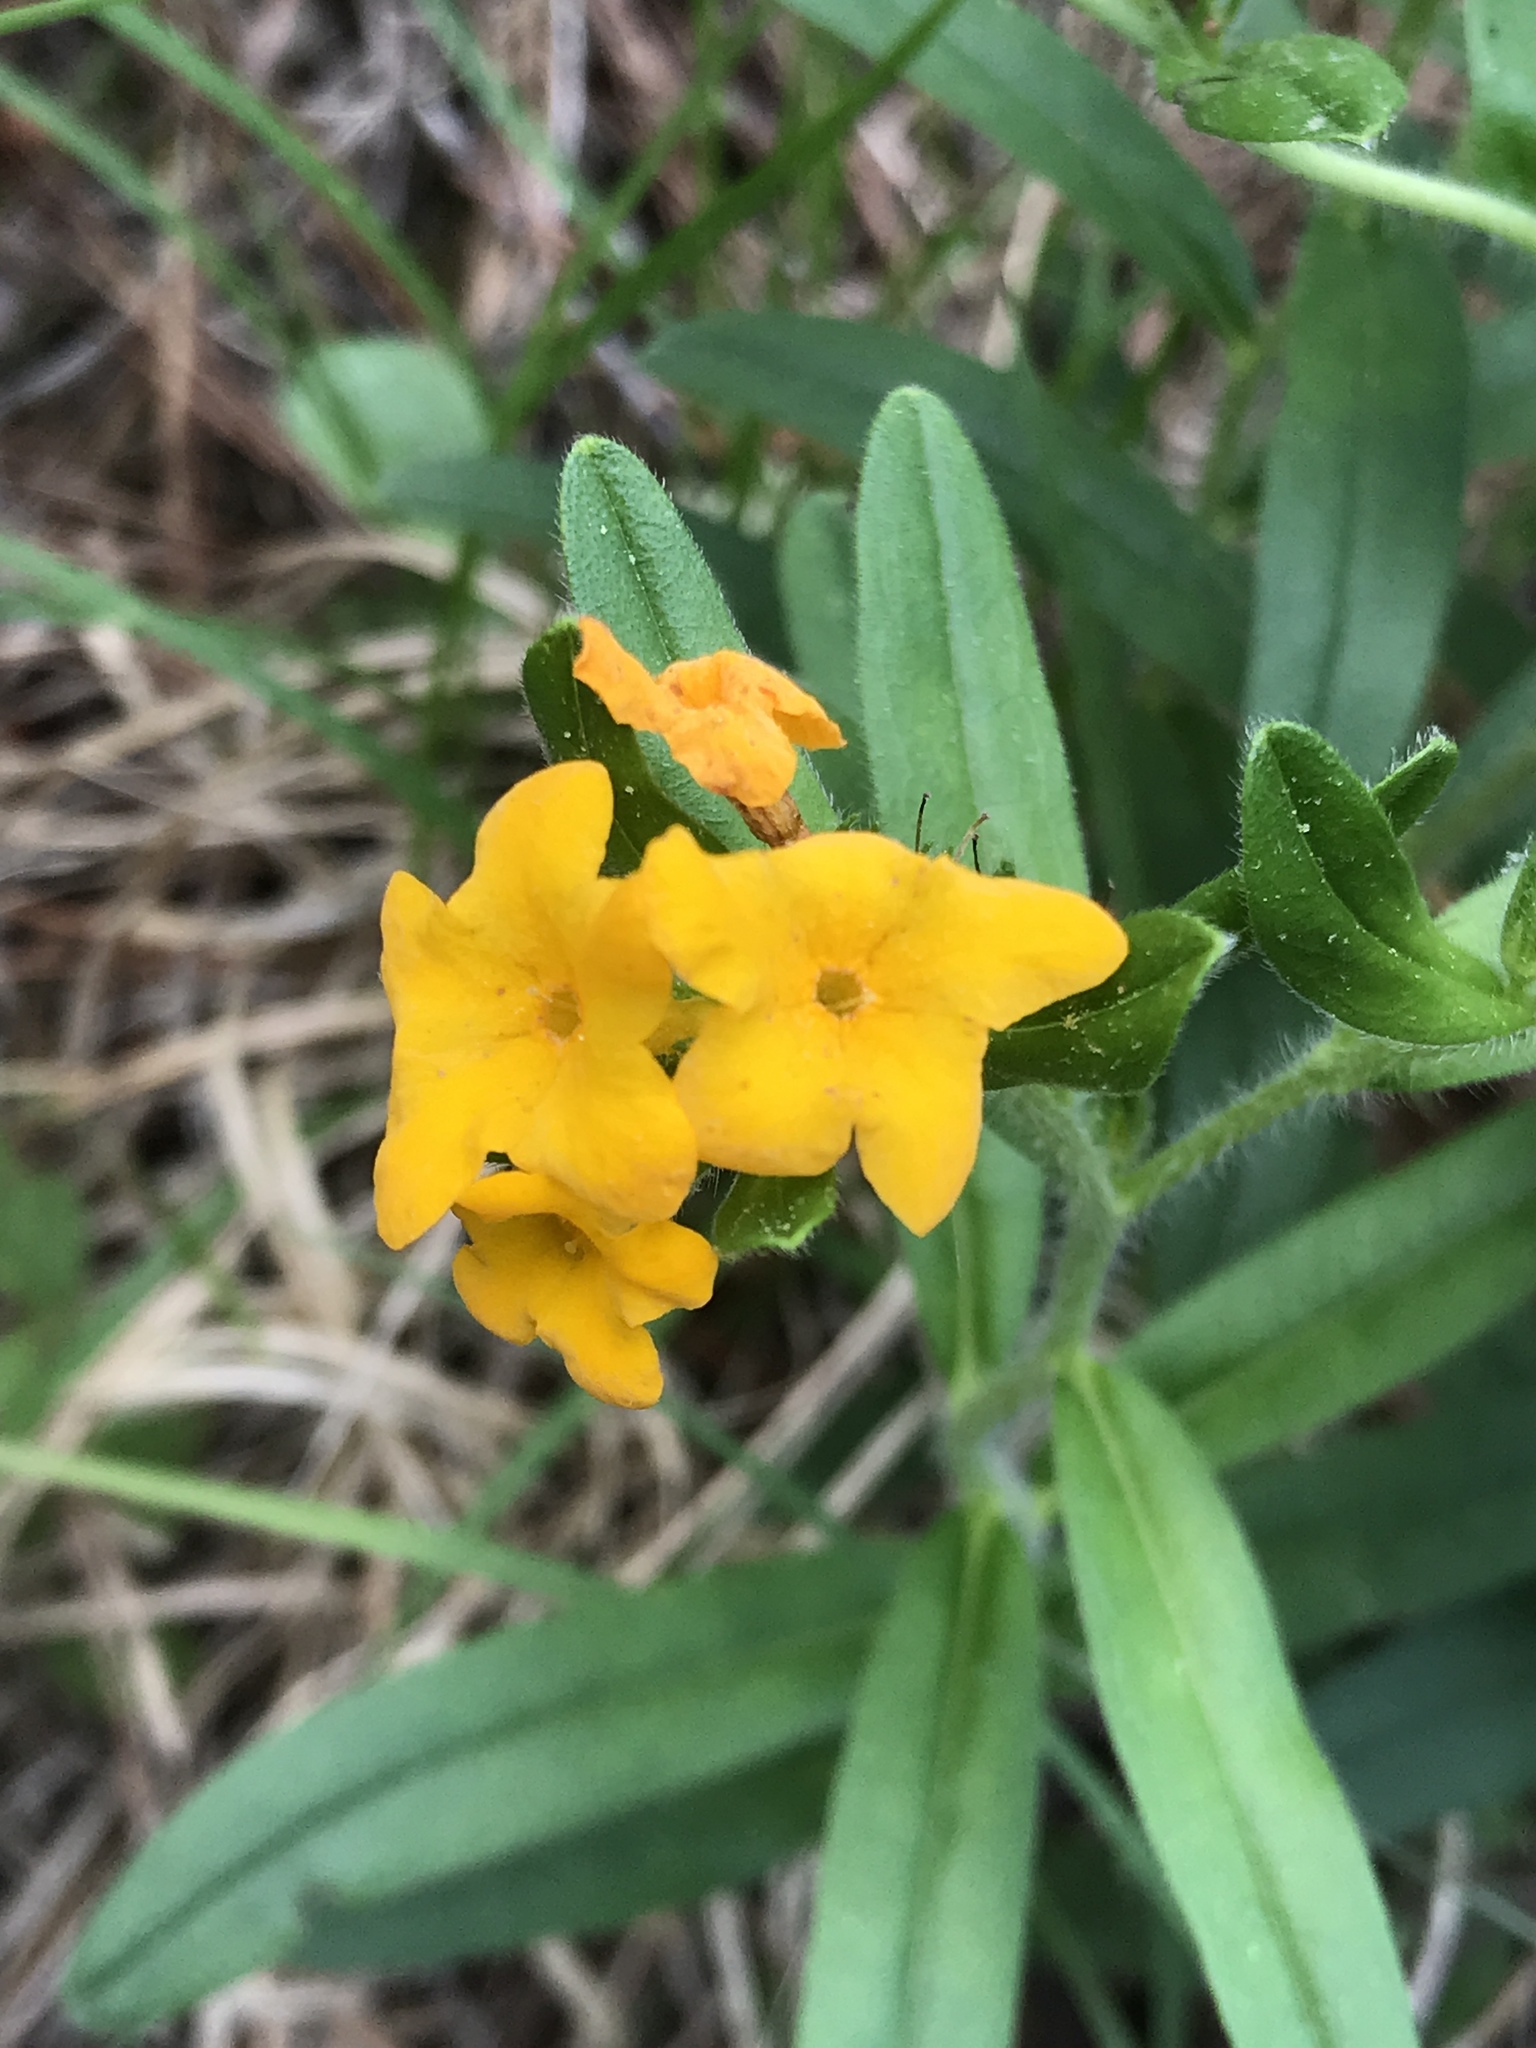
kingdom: Plantae
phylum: Tracheophyta
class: Magnoliopsida
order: Boraginales
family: Boraginaceae
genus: Lithospermum
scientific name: Lithospermum canescens
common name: Hoary puccoon
